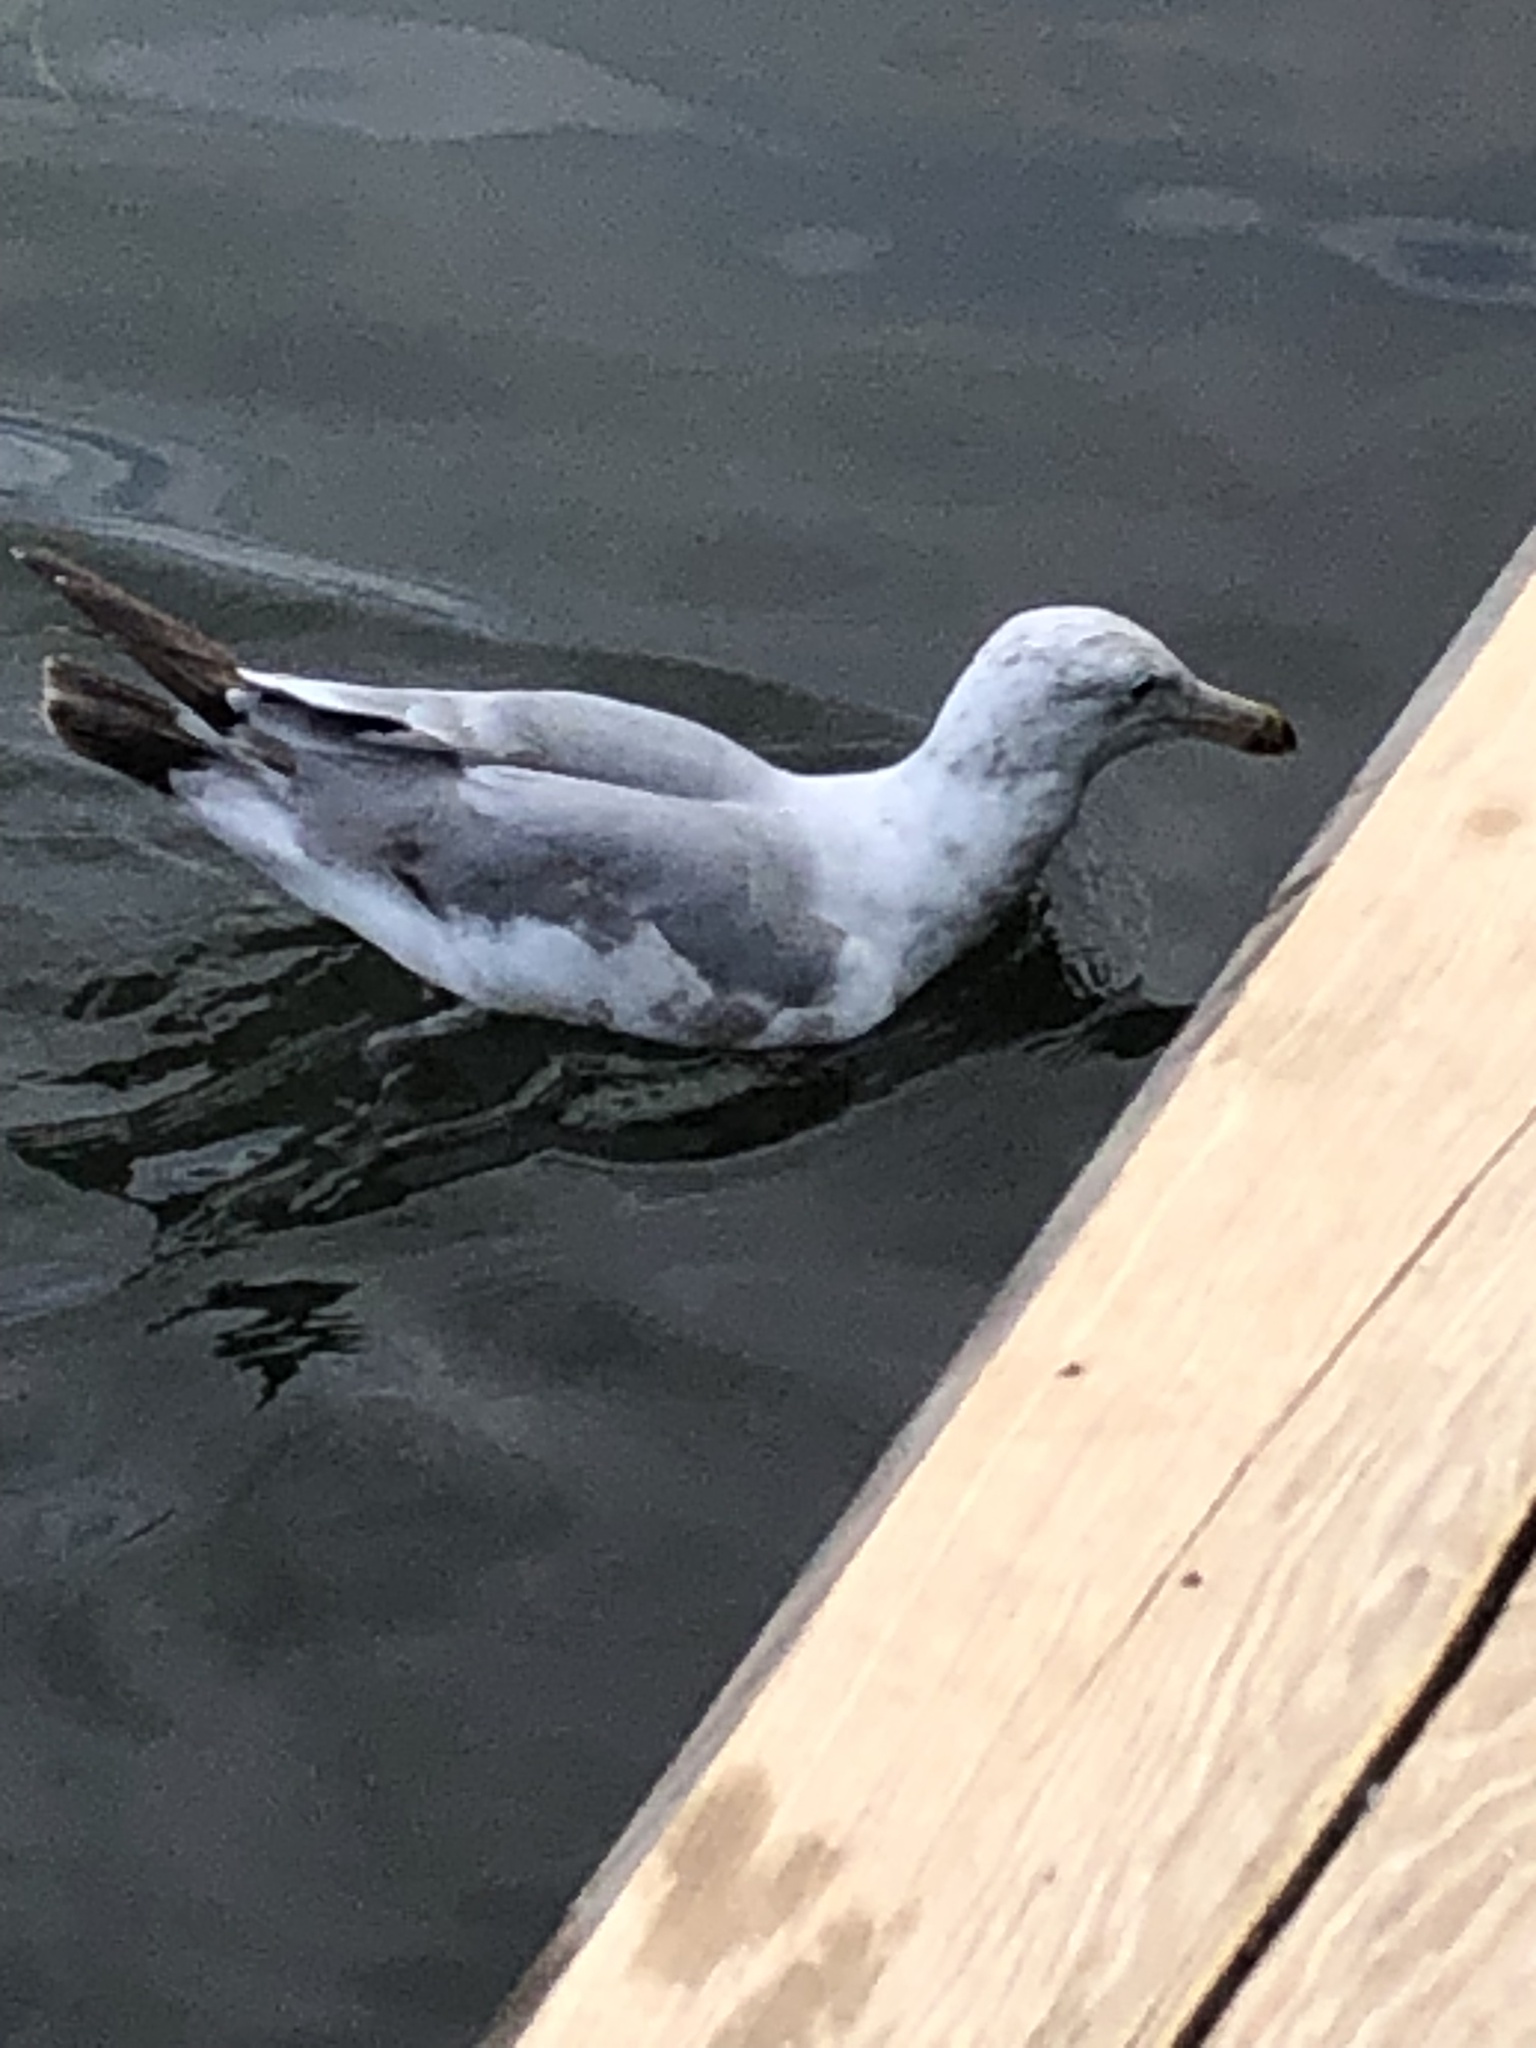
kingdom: Animalia
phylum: Chordata
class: Aves
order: Charadriiformes
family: Laridae
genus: Larus
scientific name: Larus argentatus
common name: Herring gull
